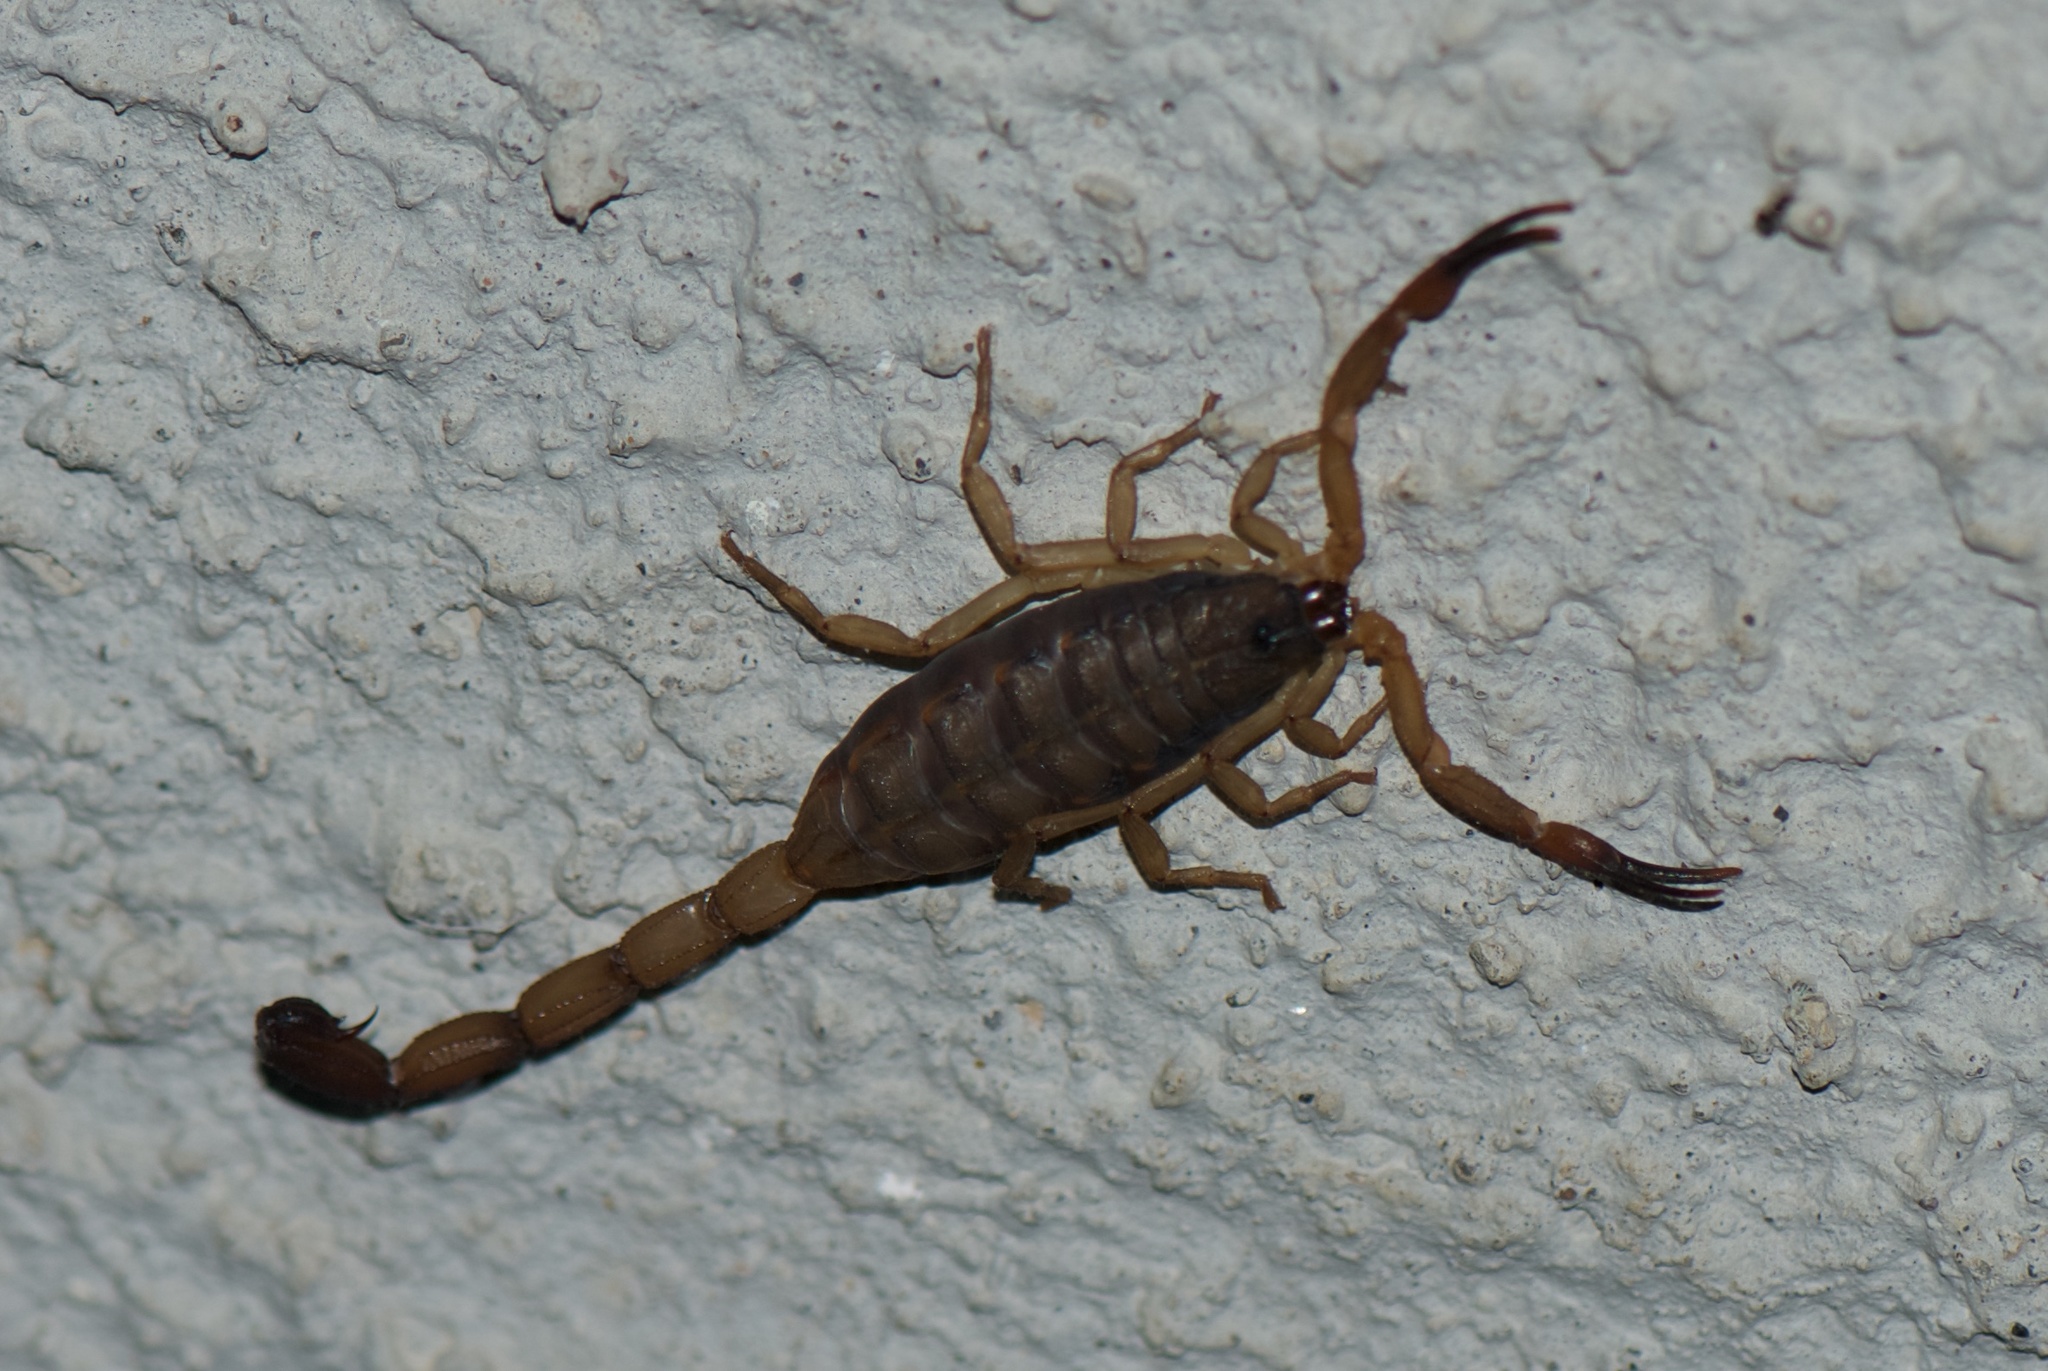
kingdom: Animalia
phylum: Arthropoda
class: Arachnida
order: Scorpiones
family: Buthidae
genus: Centruroides
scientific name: Centruroides limbatus
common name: Scorpions
